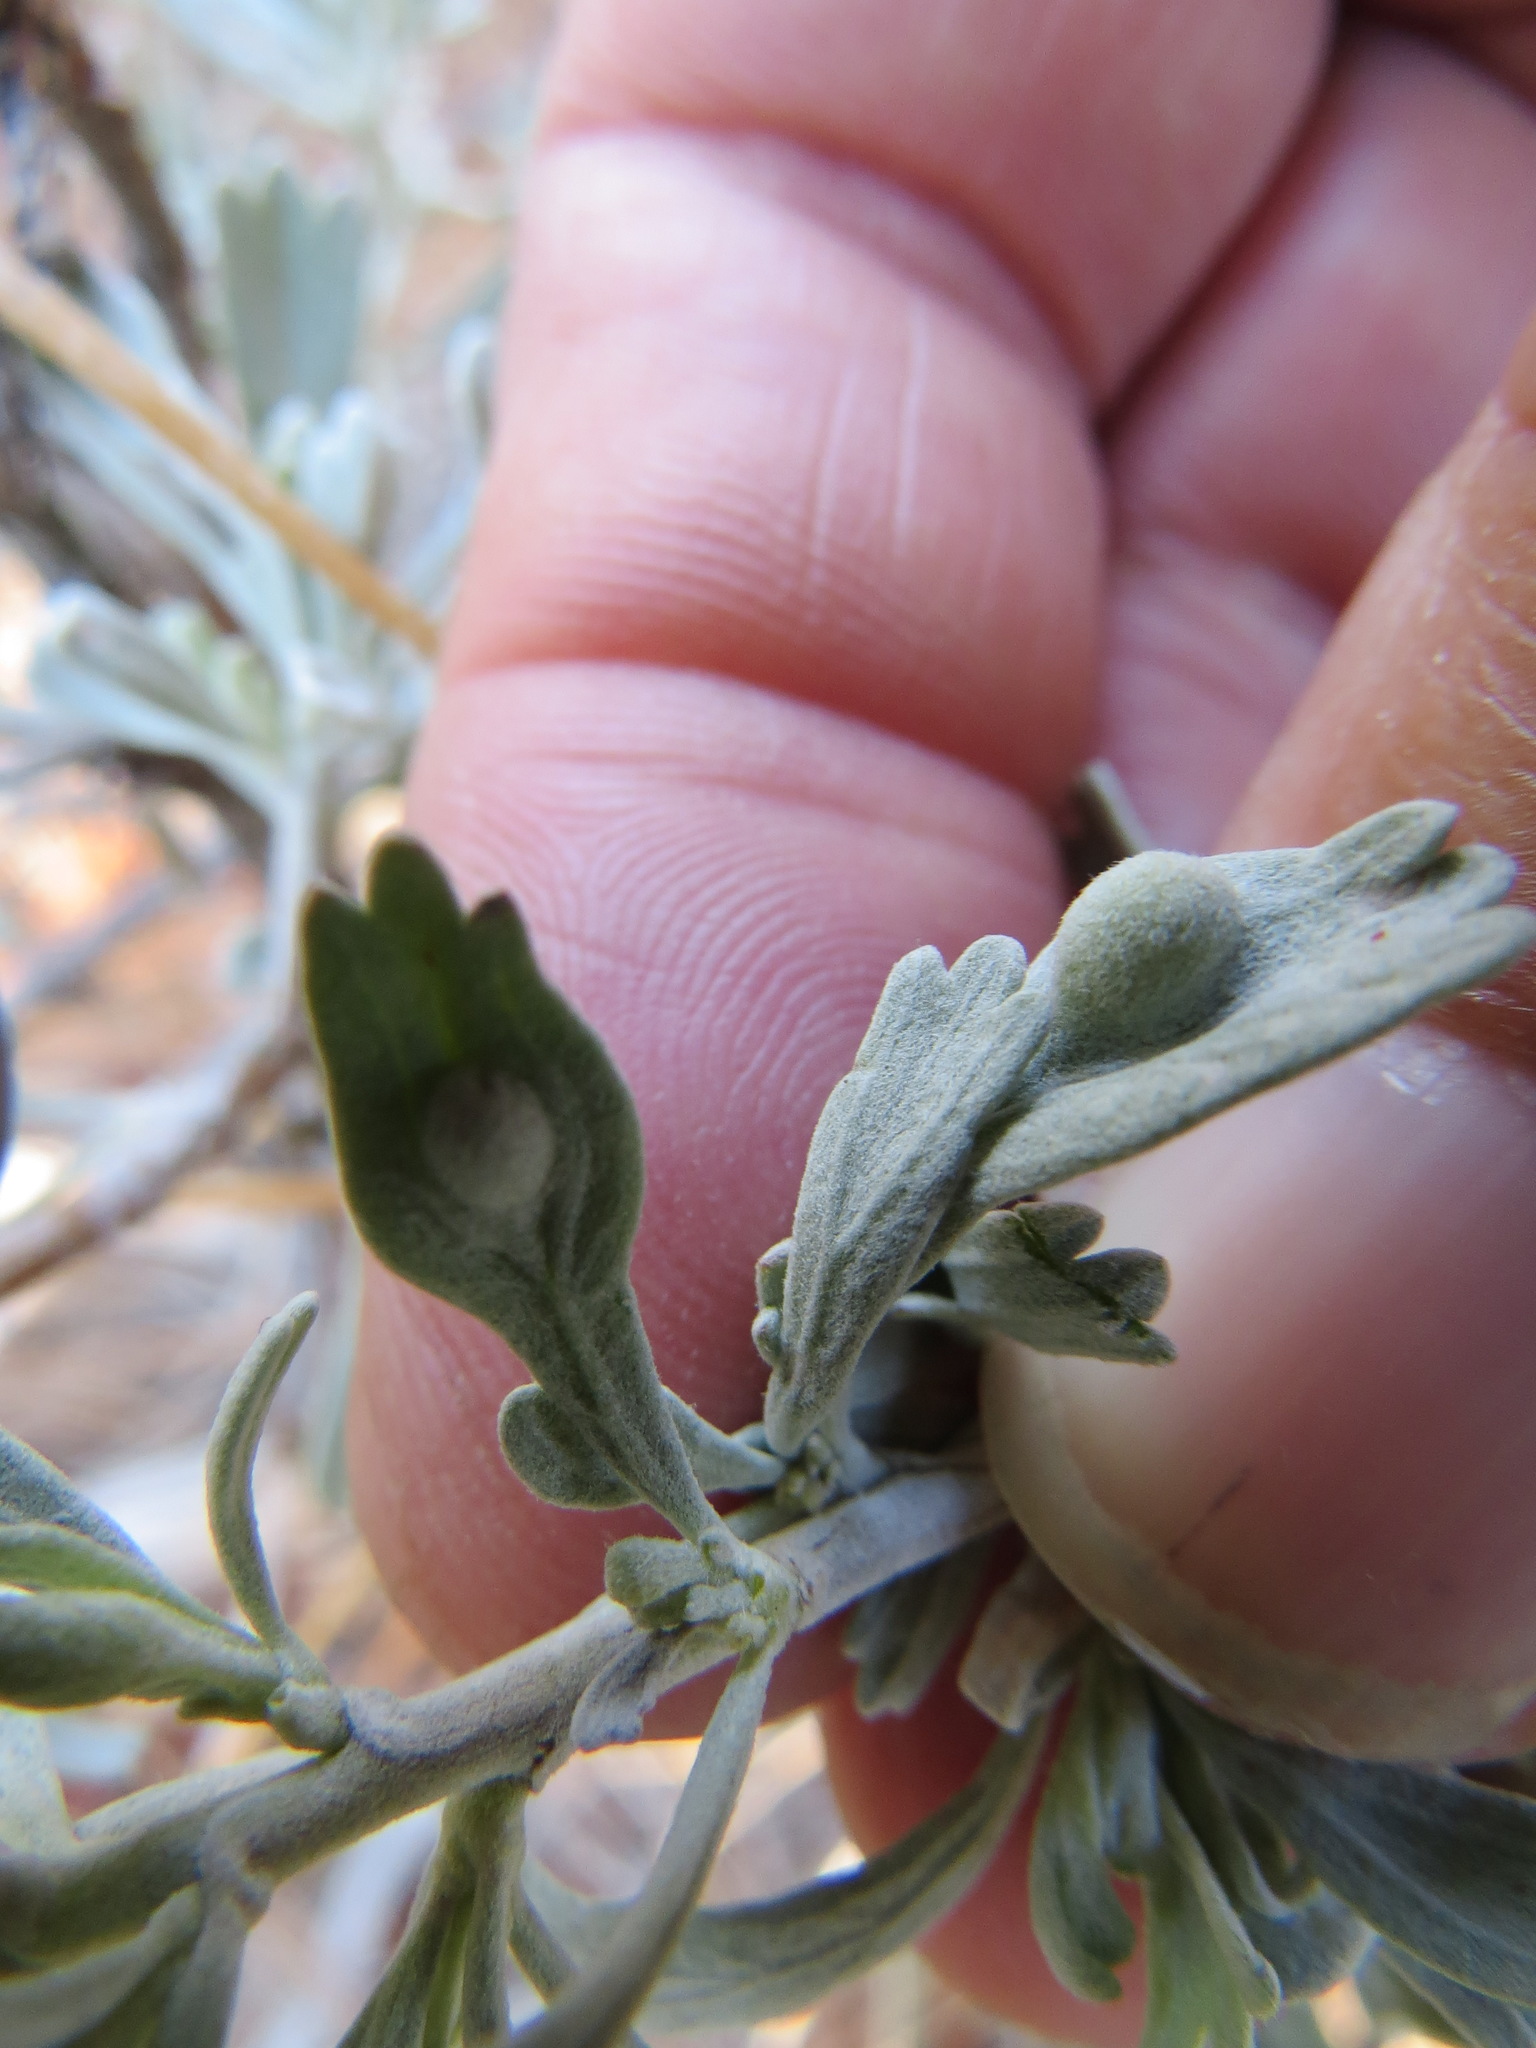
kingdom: Animalia
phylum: Arthropoda
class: Insecta
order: Diptera
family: Cecidomyiidae
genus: Rhopalomyia
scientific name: Rhopalomyia tumidibulla
